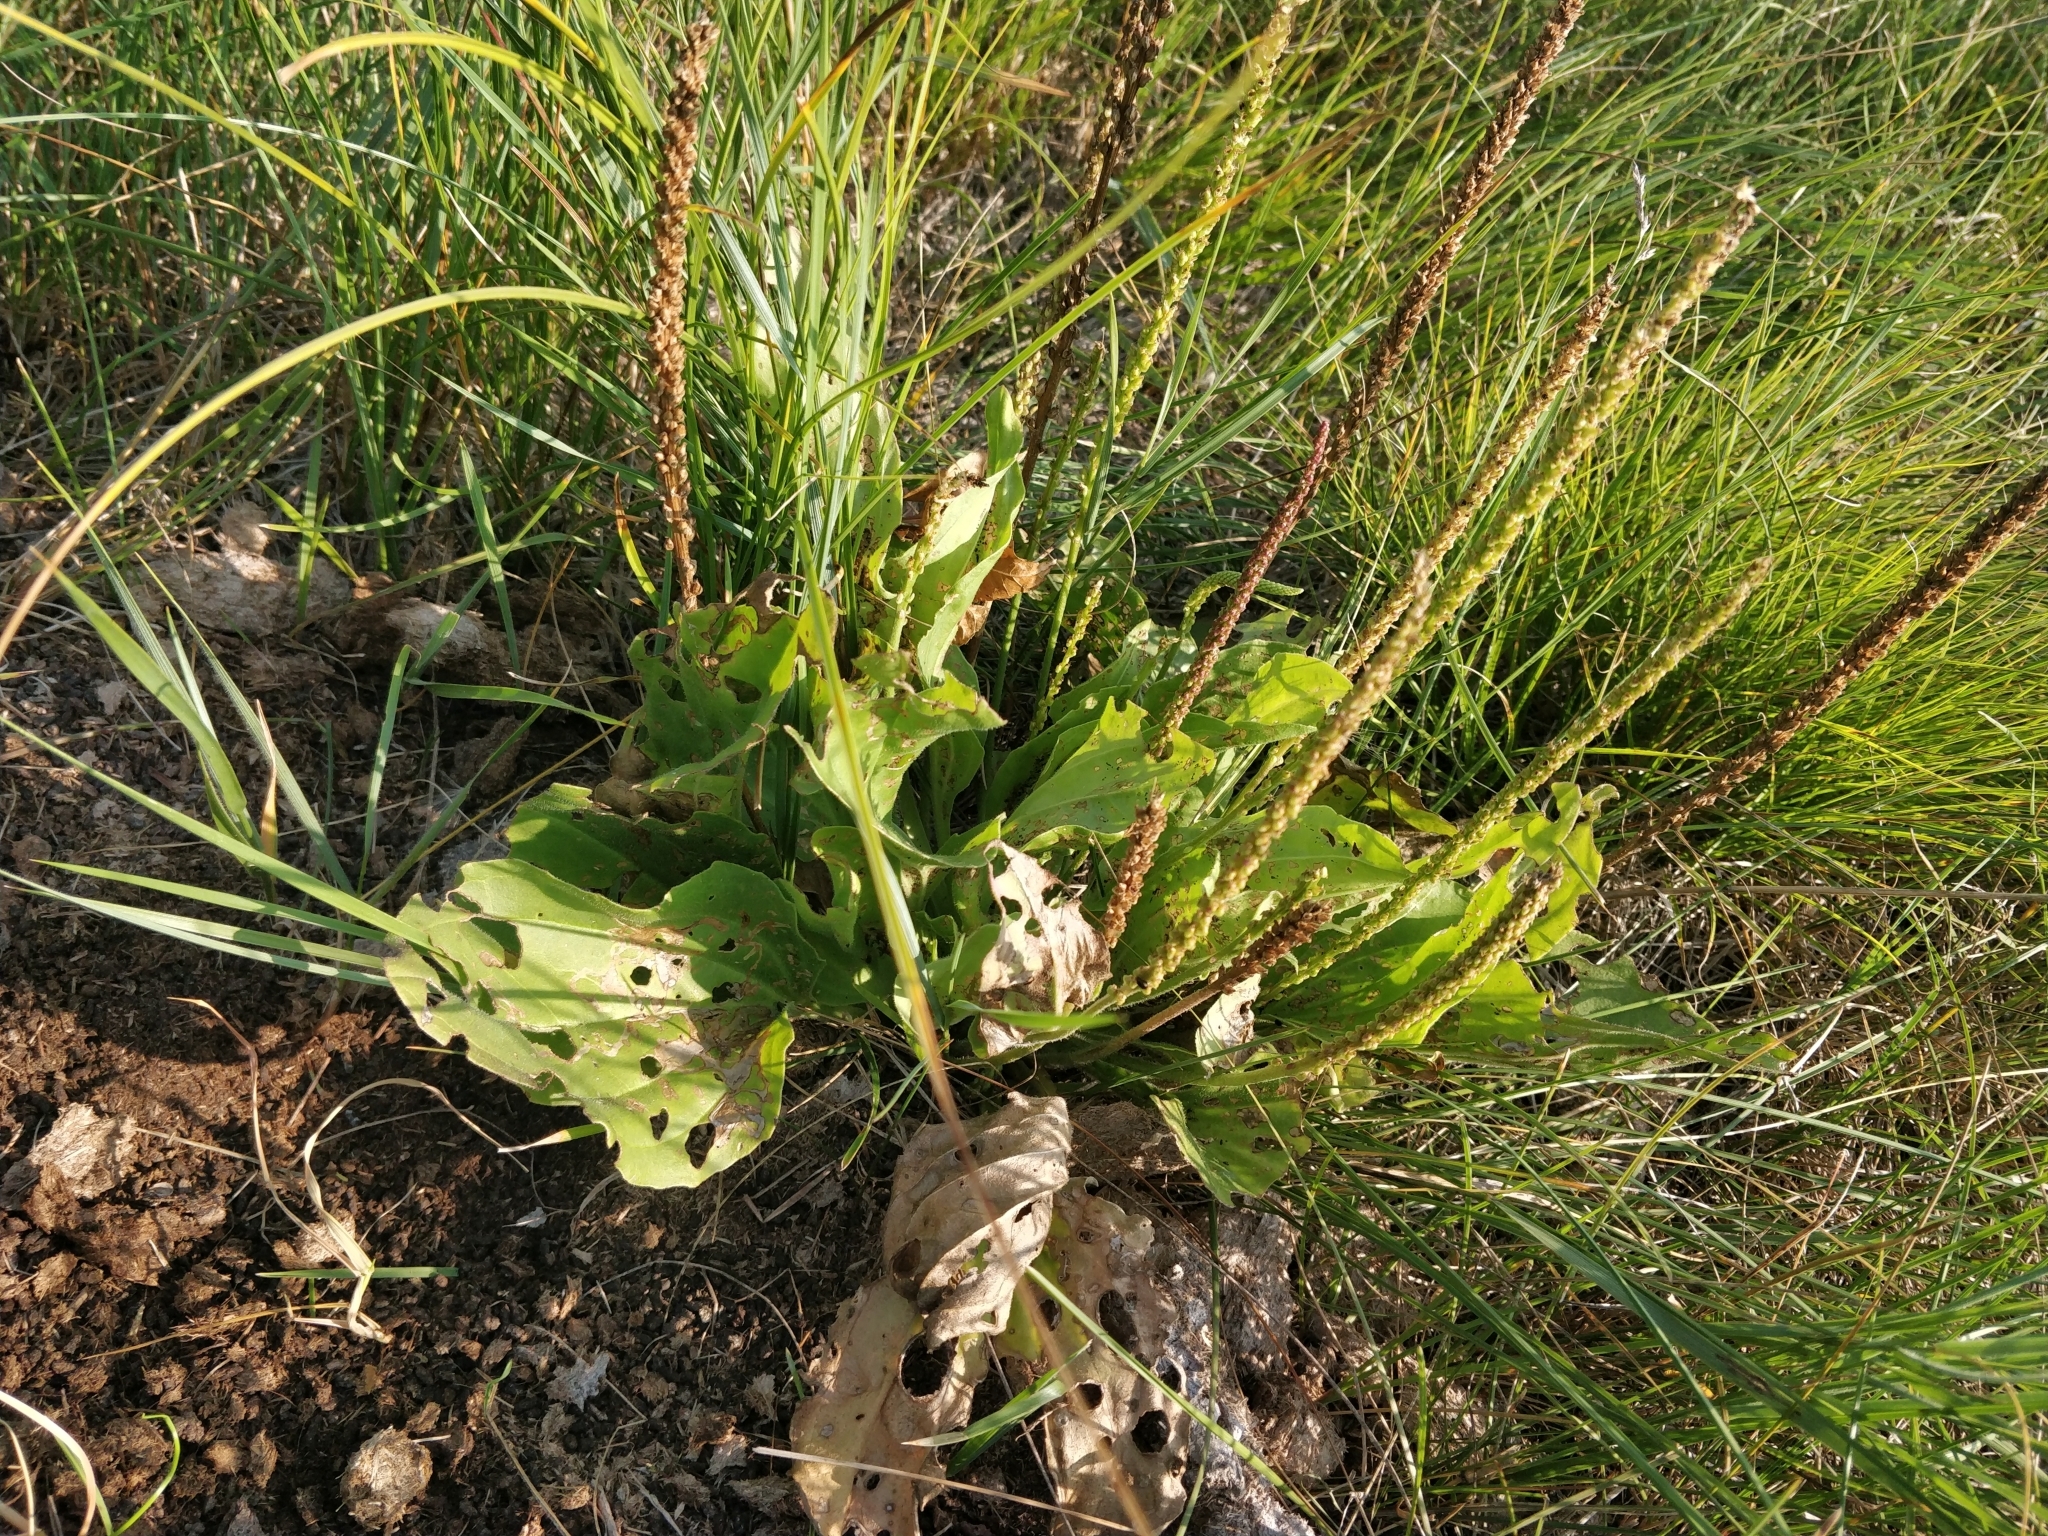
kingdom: Plantae
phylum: Tracheophyta
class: Magnoliopsida
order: Lamiales
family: Plantaginaceae
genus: Plantago
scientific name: Plantago major
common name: Common plantain
